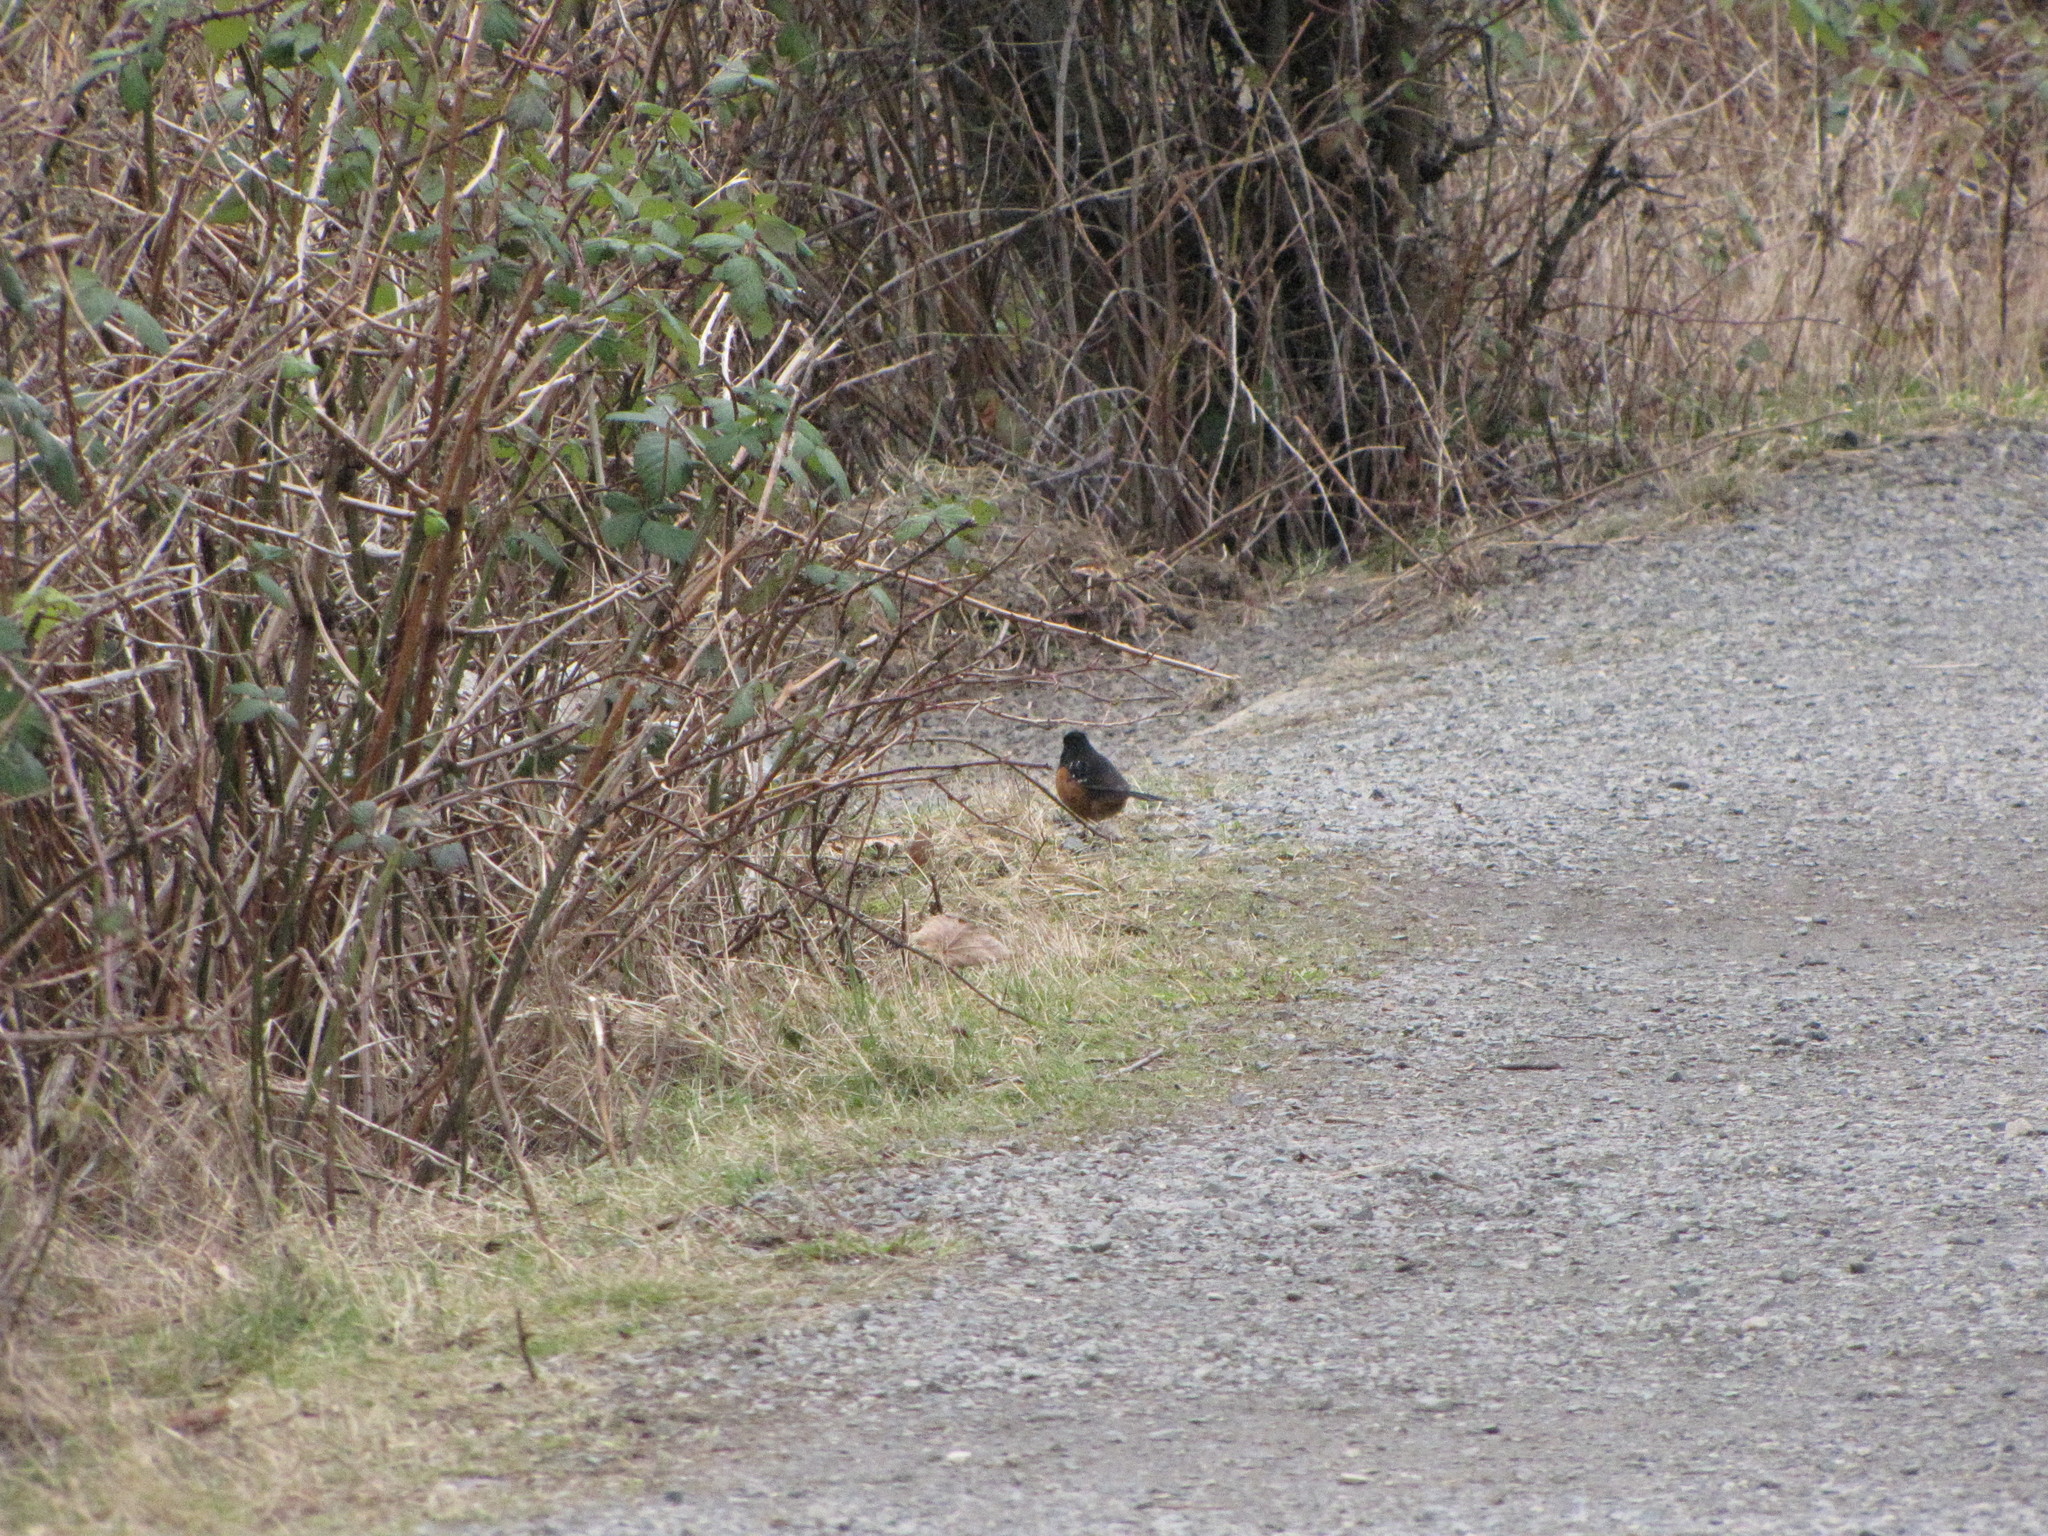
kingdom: Animalia
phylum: Chordata
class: Aves
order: Passeriformes
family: Passerellidae
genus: Pipilo
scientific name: Pipilo maculatus
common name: Spotted towhee
